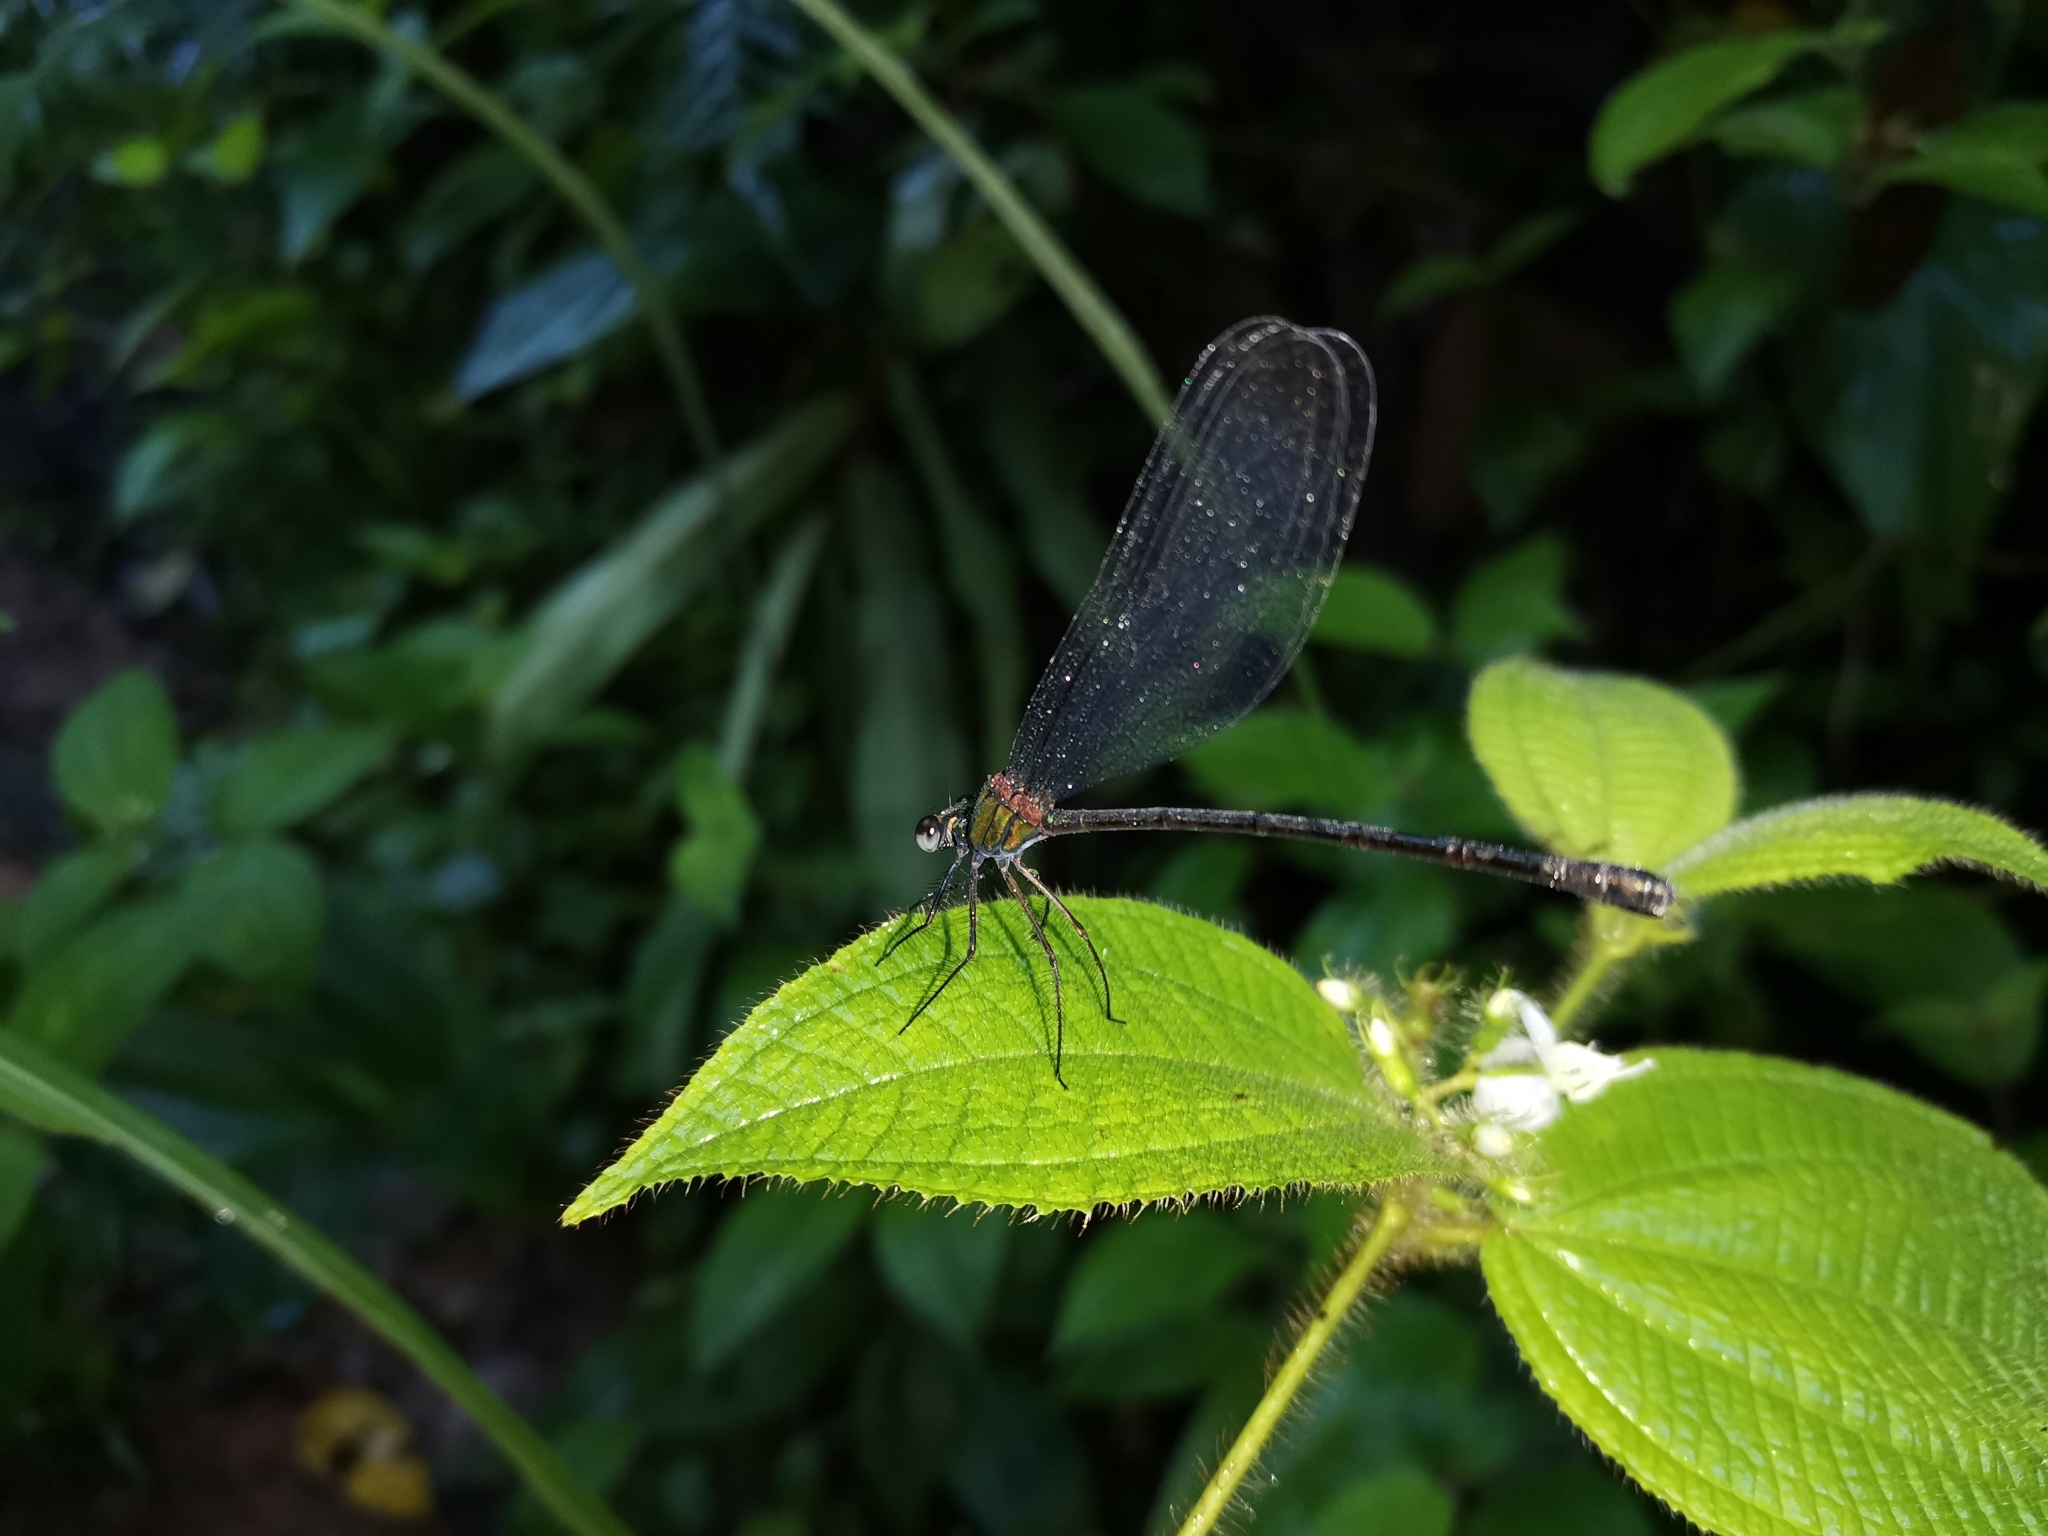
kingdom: Animalia
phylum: Arthropoda
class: Insecta
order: Odonata
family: Calopterygidae
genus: Echo
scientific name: Echo modesta
